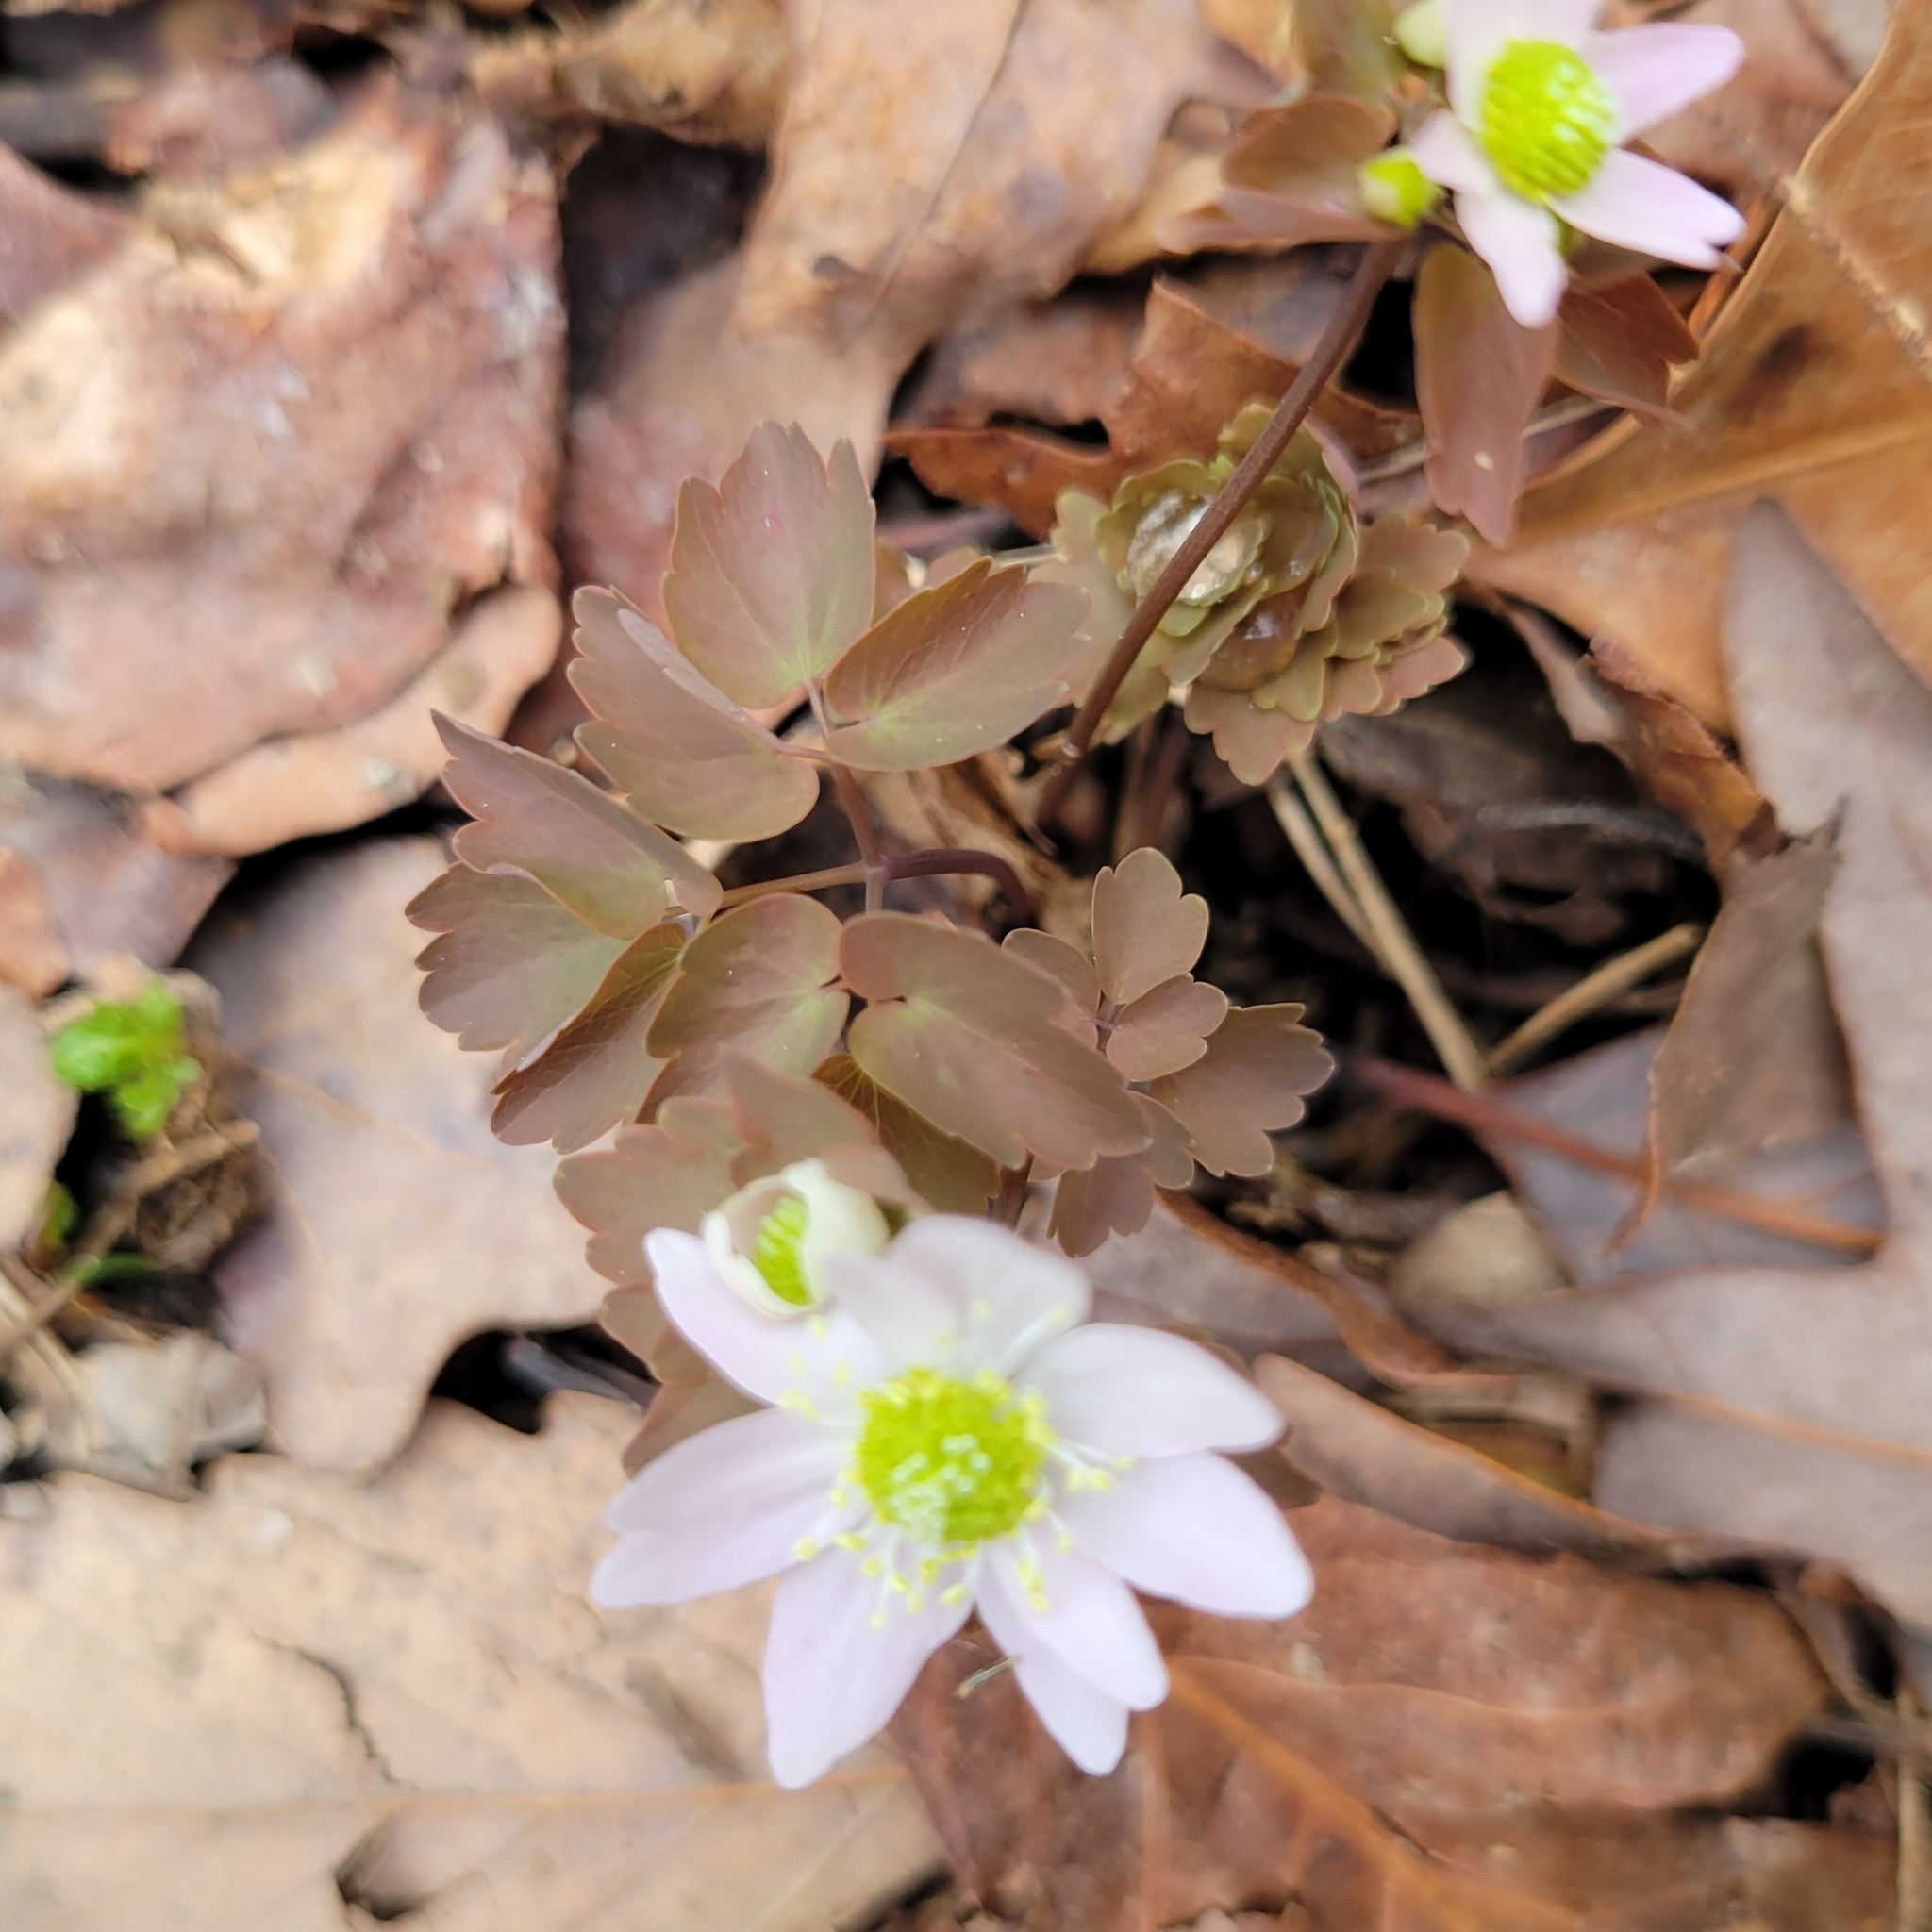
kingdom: Plantae
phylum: Tracheophyta
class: Magnoliopsida
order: Ranunculales
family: Ranunculaceae
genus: Thalictrum
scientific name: Thalictrum thalictroides
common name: Rue-anemone
